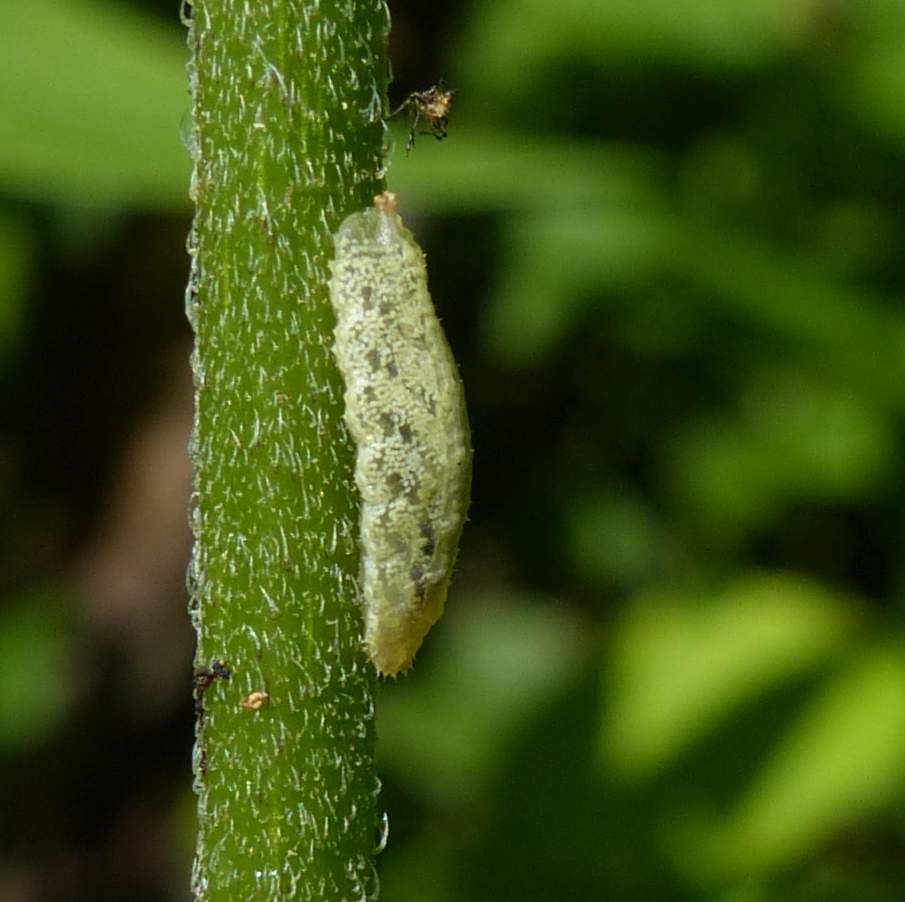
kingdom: Animalia
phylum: Arthropoda
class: Insecta
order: Diptera
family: Syrphidae
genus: Epistrophella
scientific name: Epistrophella emarginata
